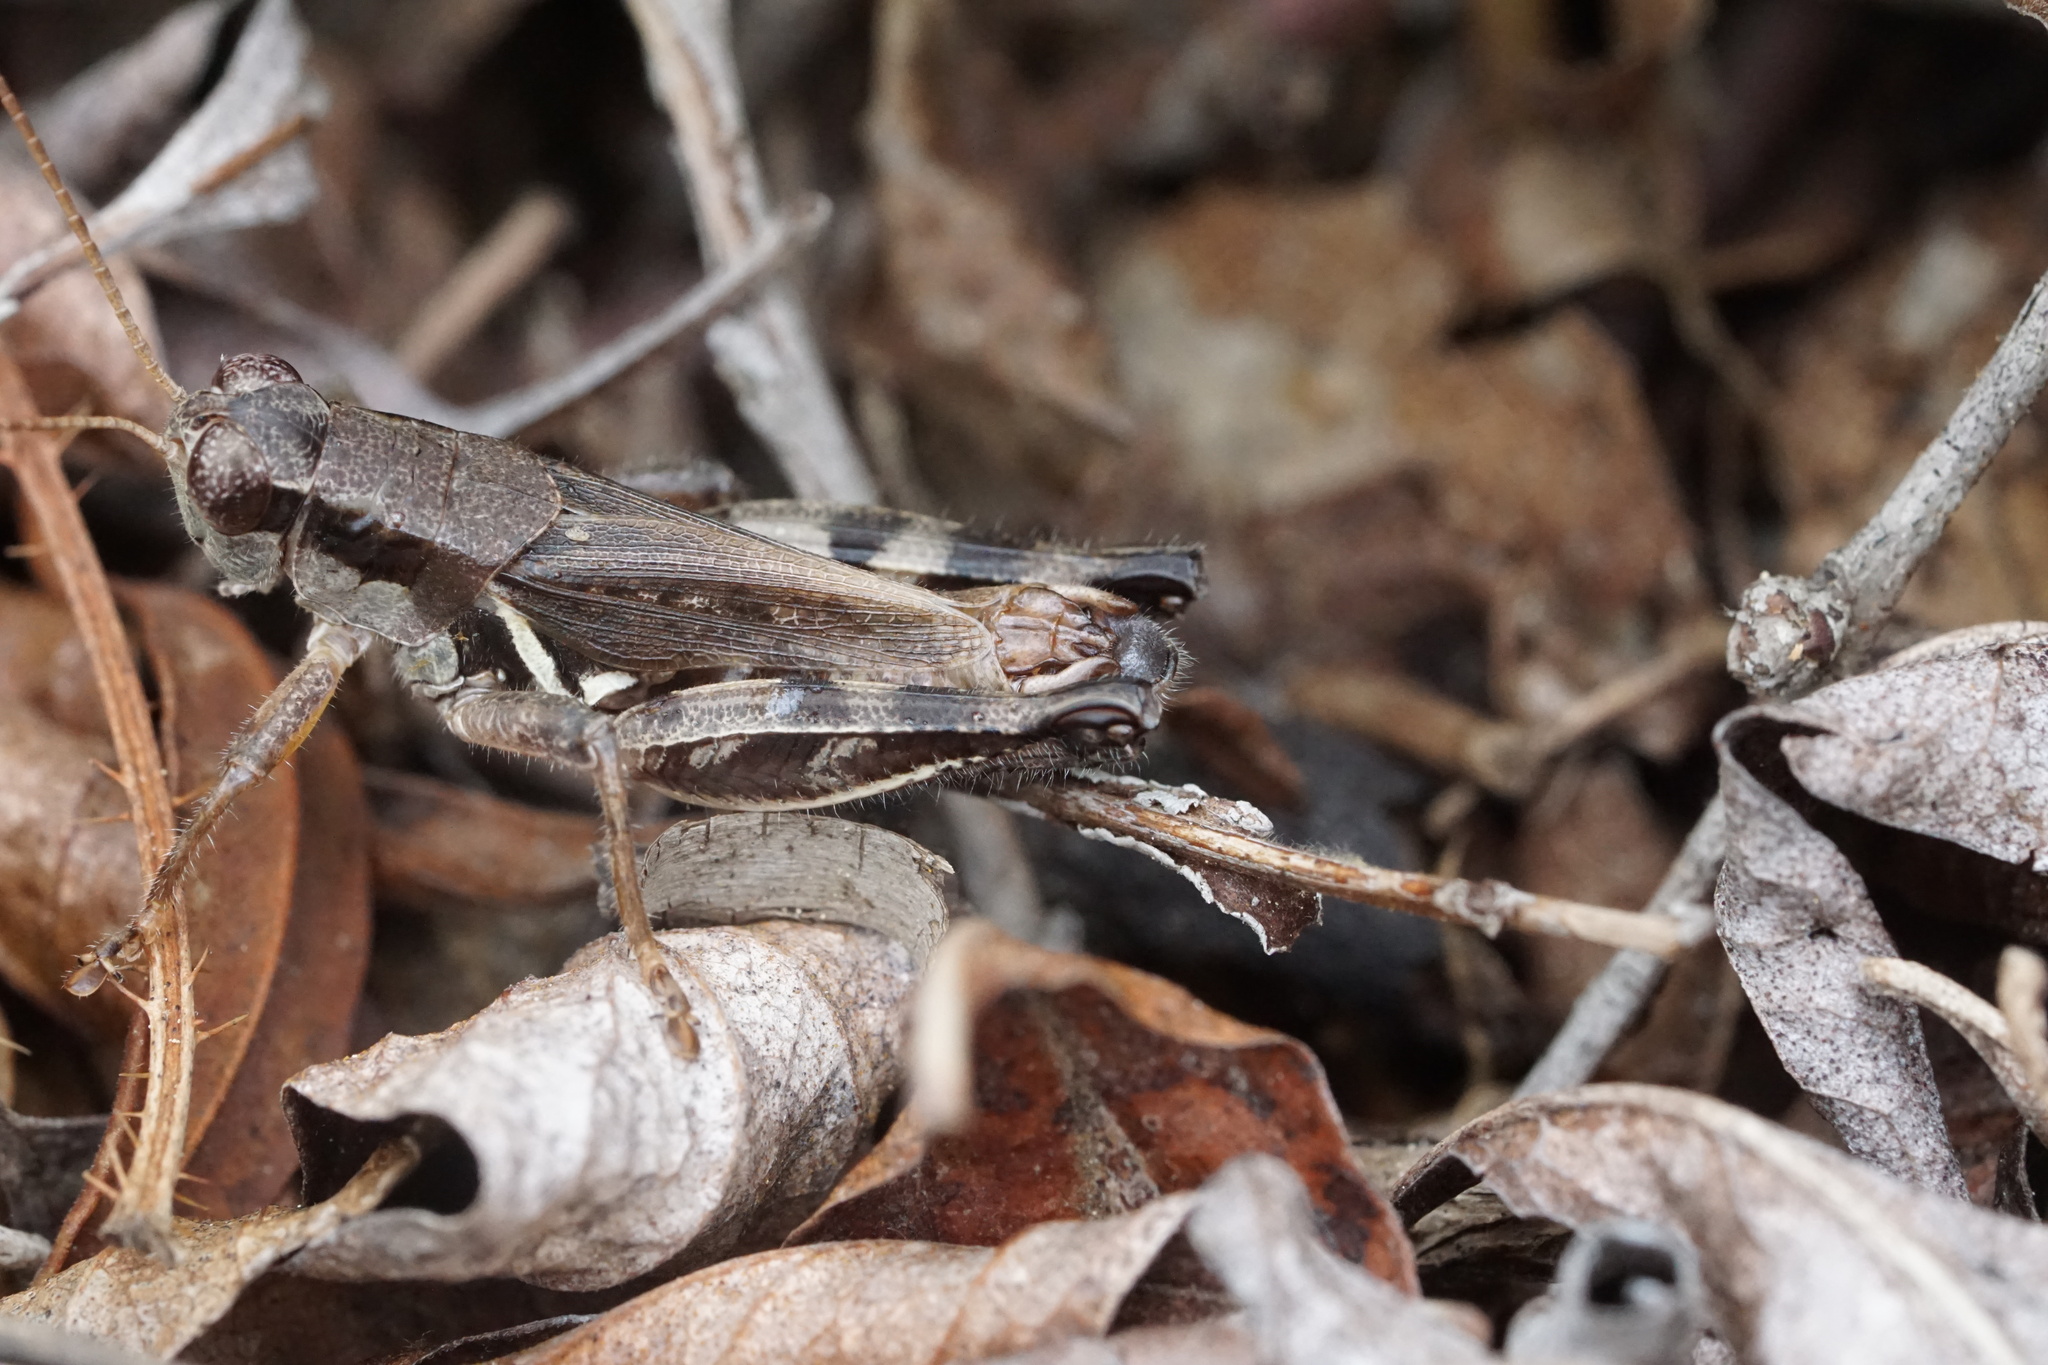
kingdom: Animalia
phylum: Arthropoda
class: Insecta
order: Orthoptera
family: Acrididae
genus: Melanoplus
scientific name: Melanoplus fasciatus
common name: Huckleberry locust
